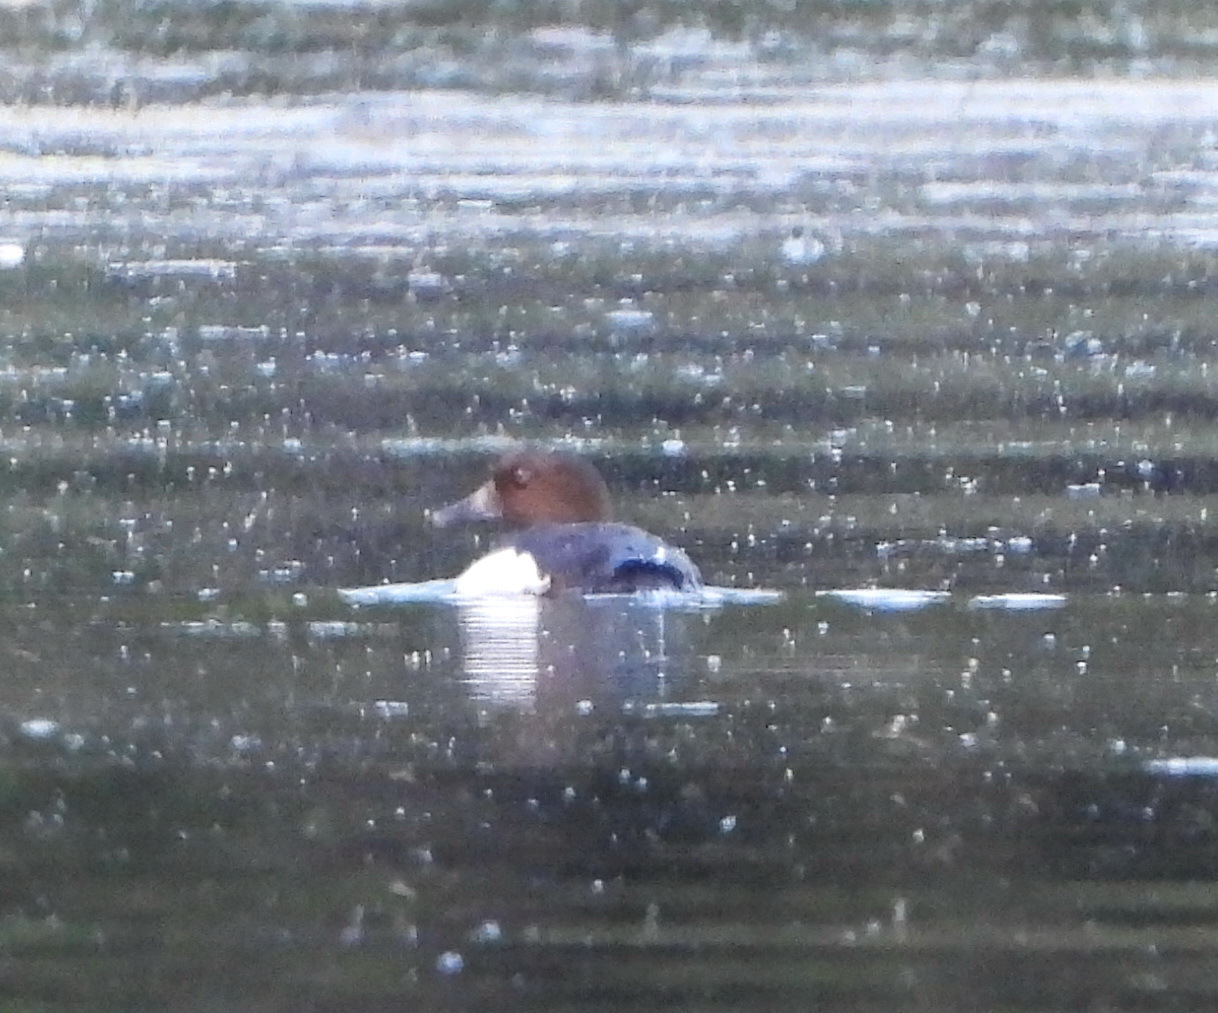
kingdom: Animalia
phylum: Chordata
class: Aves
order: Anseriformes
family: Anatidae
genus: Bucephala
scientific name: Bucephala clangula
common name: Common goldeneye
